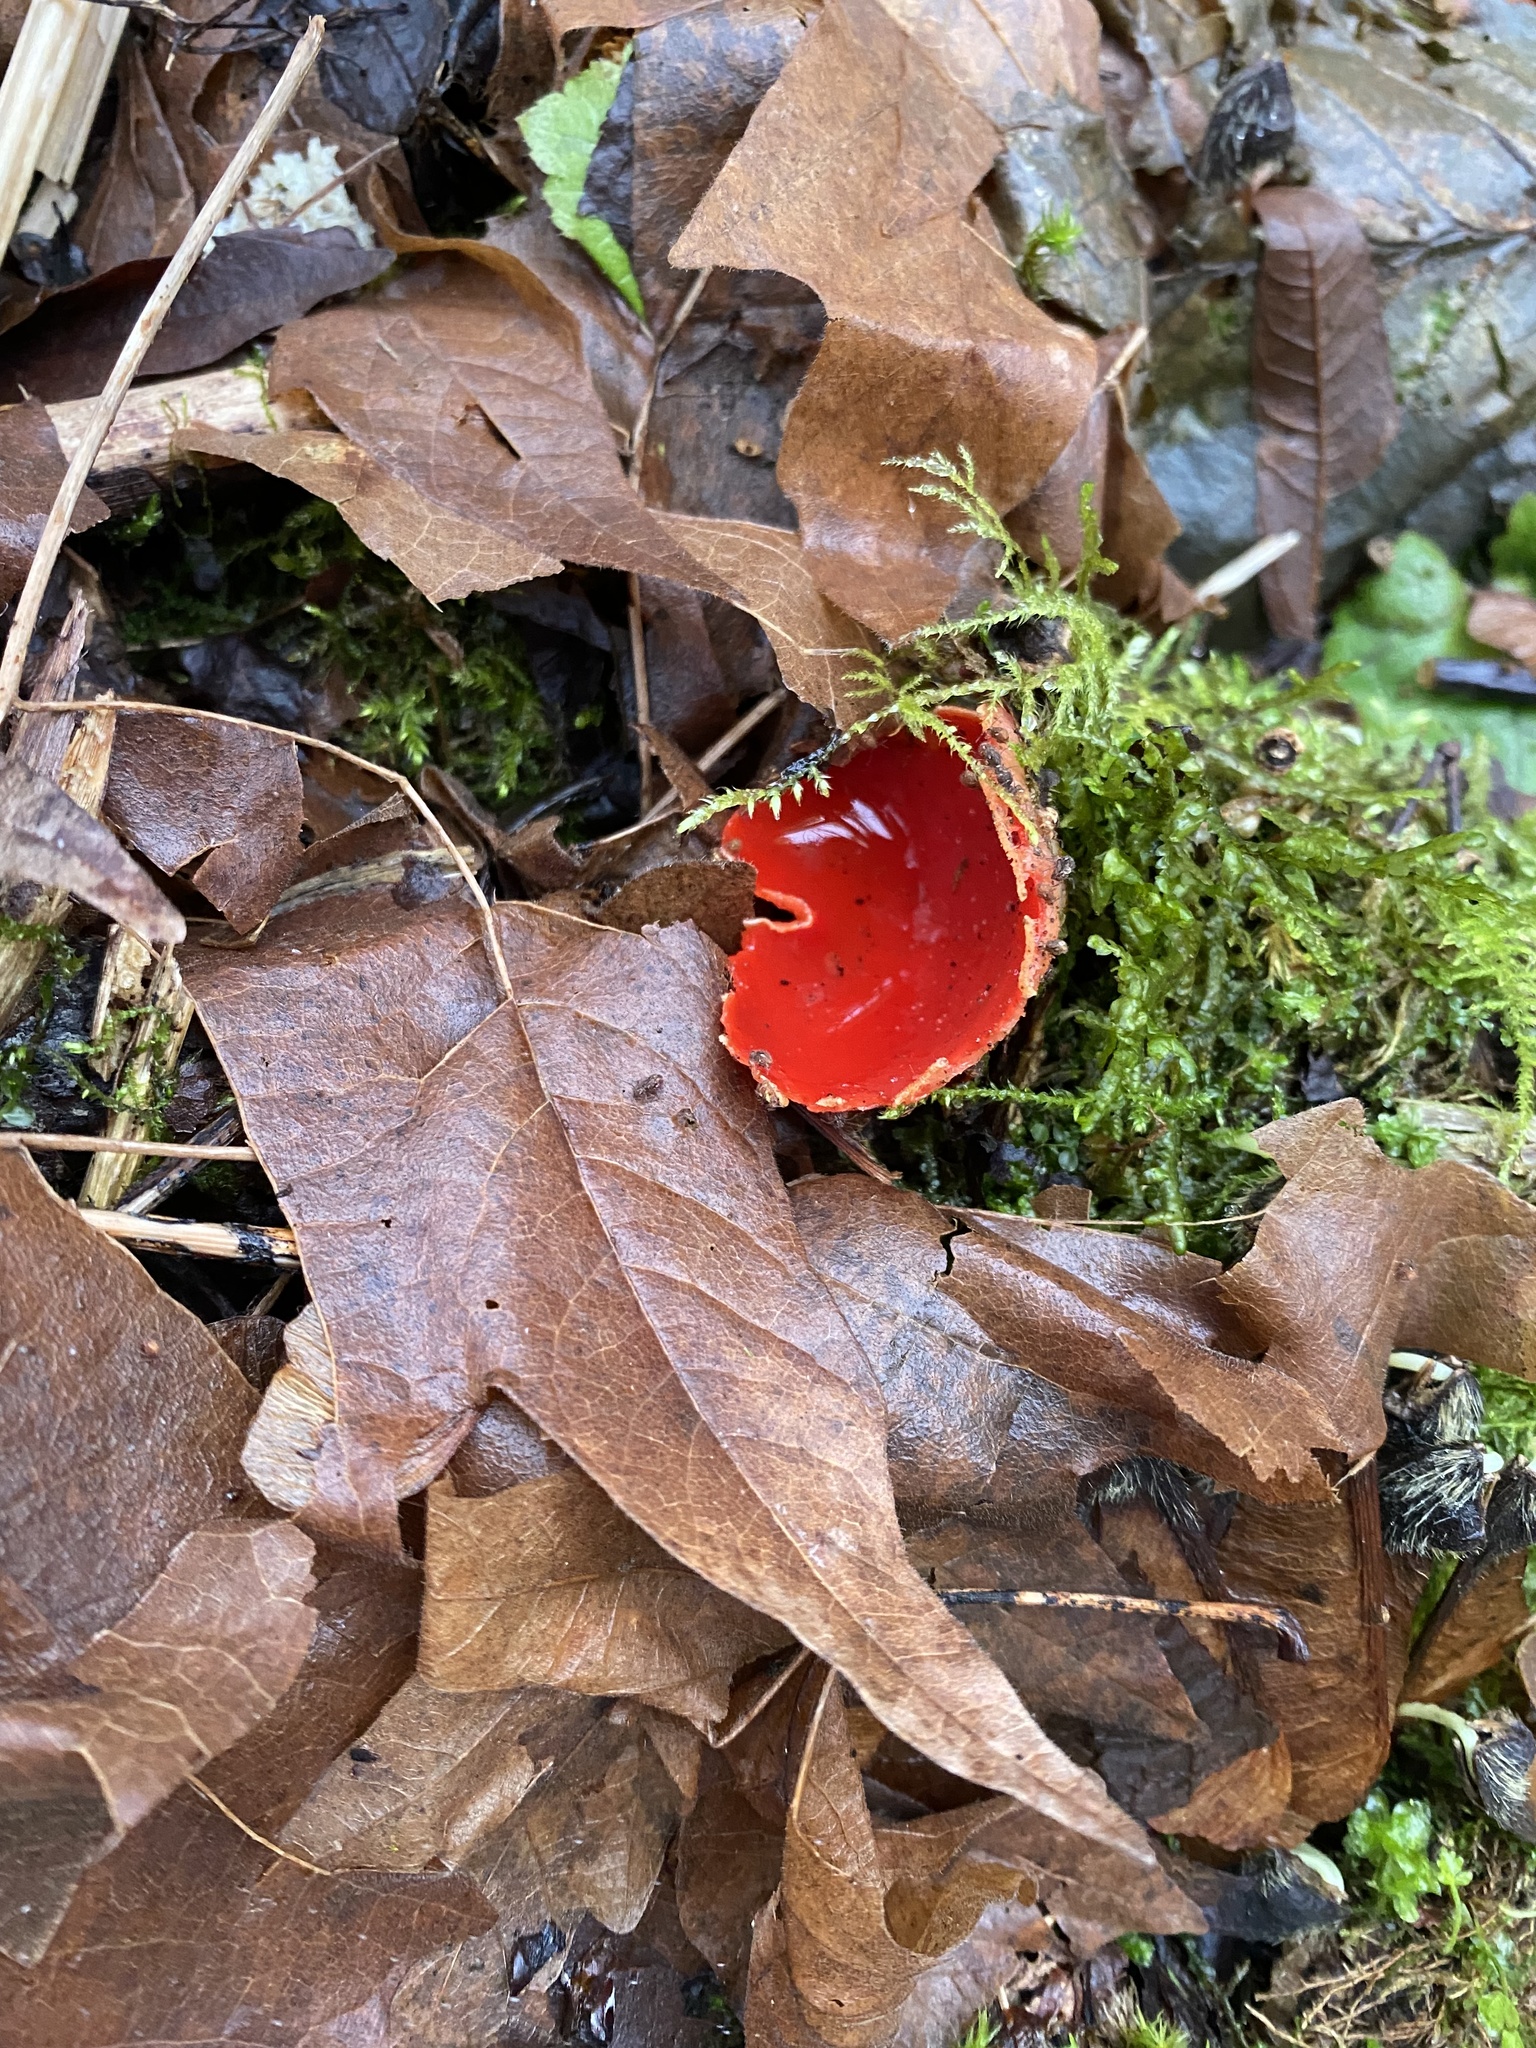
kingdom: Fungi
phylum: Ascomycota
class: Pezizomycetes
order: Pezizales
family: Sarcoscyphaceae
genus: Sarcoscypha
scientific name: Sarcoscypha coccinea
